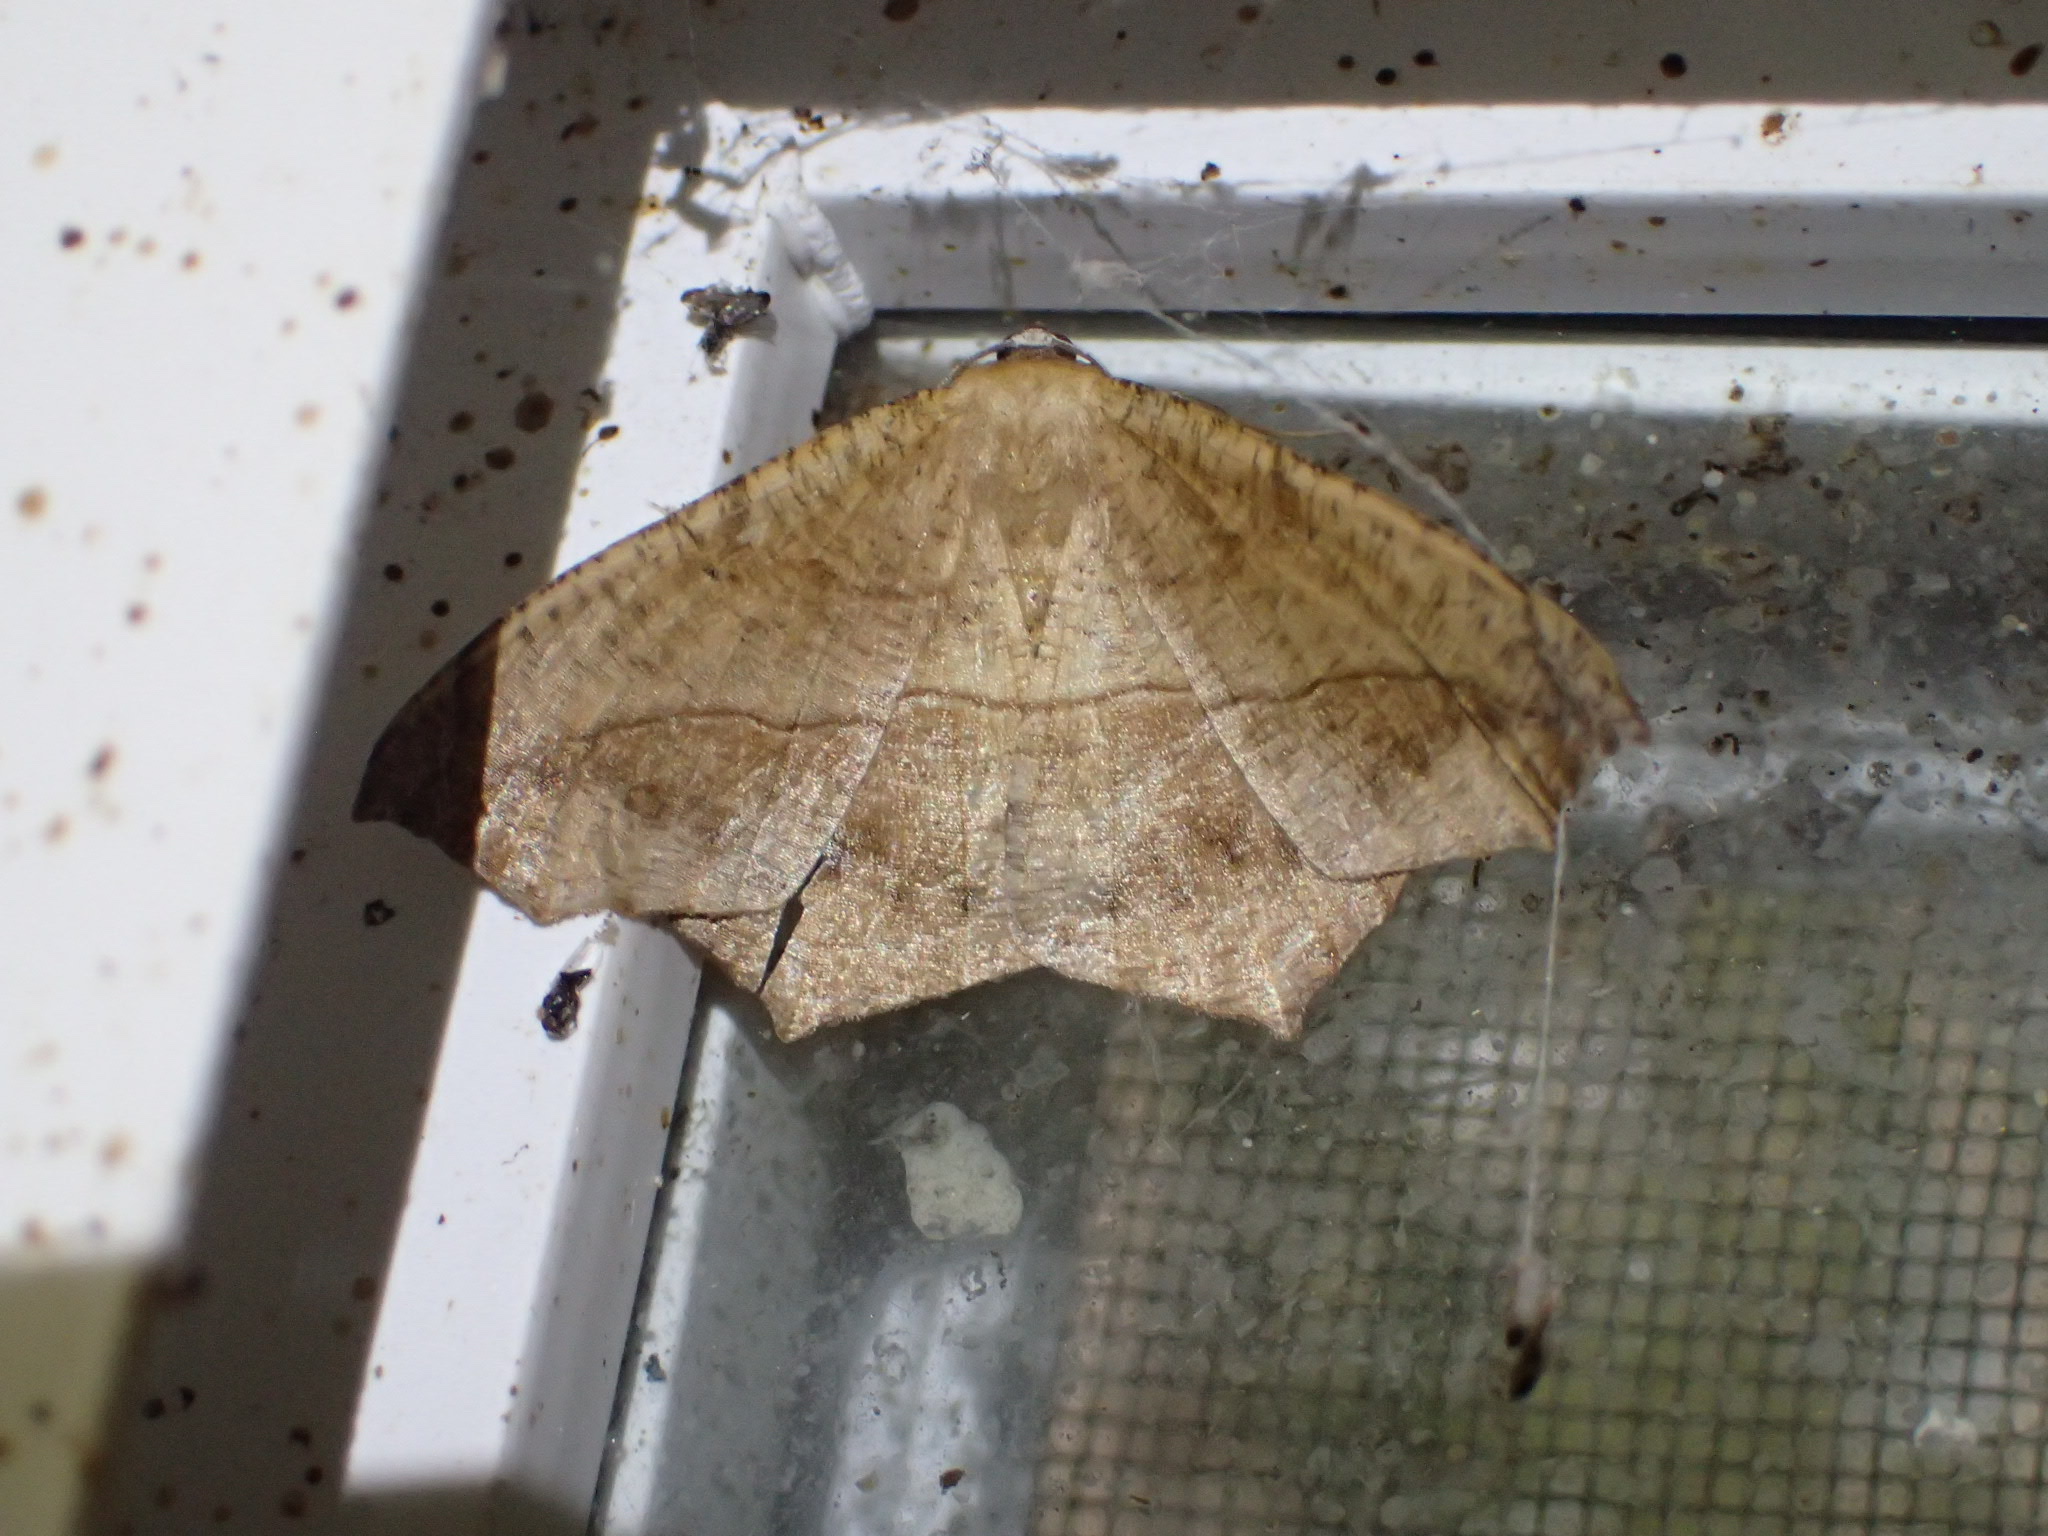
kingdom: Animalia
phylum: Arthropoda
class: Insecta
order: Lepidoptera
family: Geometridae
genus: Prochoerodes
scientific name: Prochoerodes lineola
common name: Large maple spanworm
